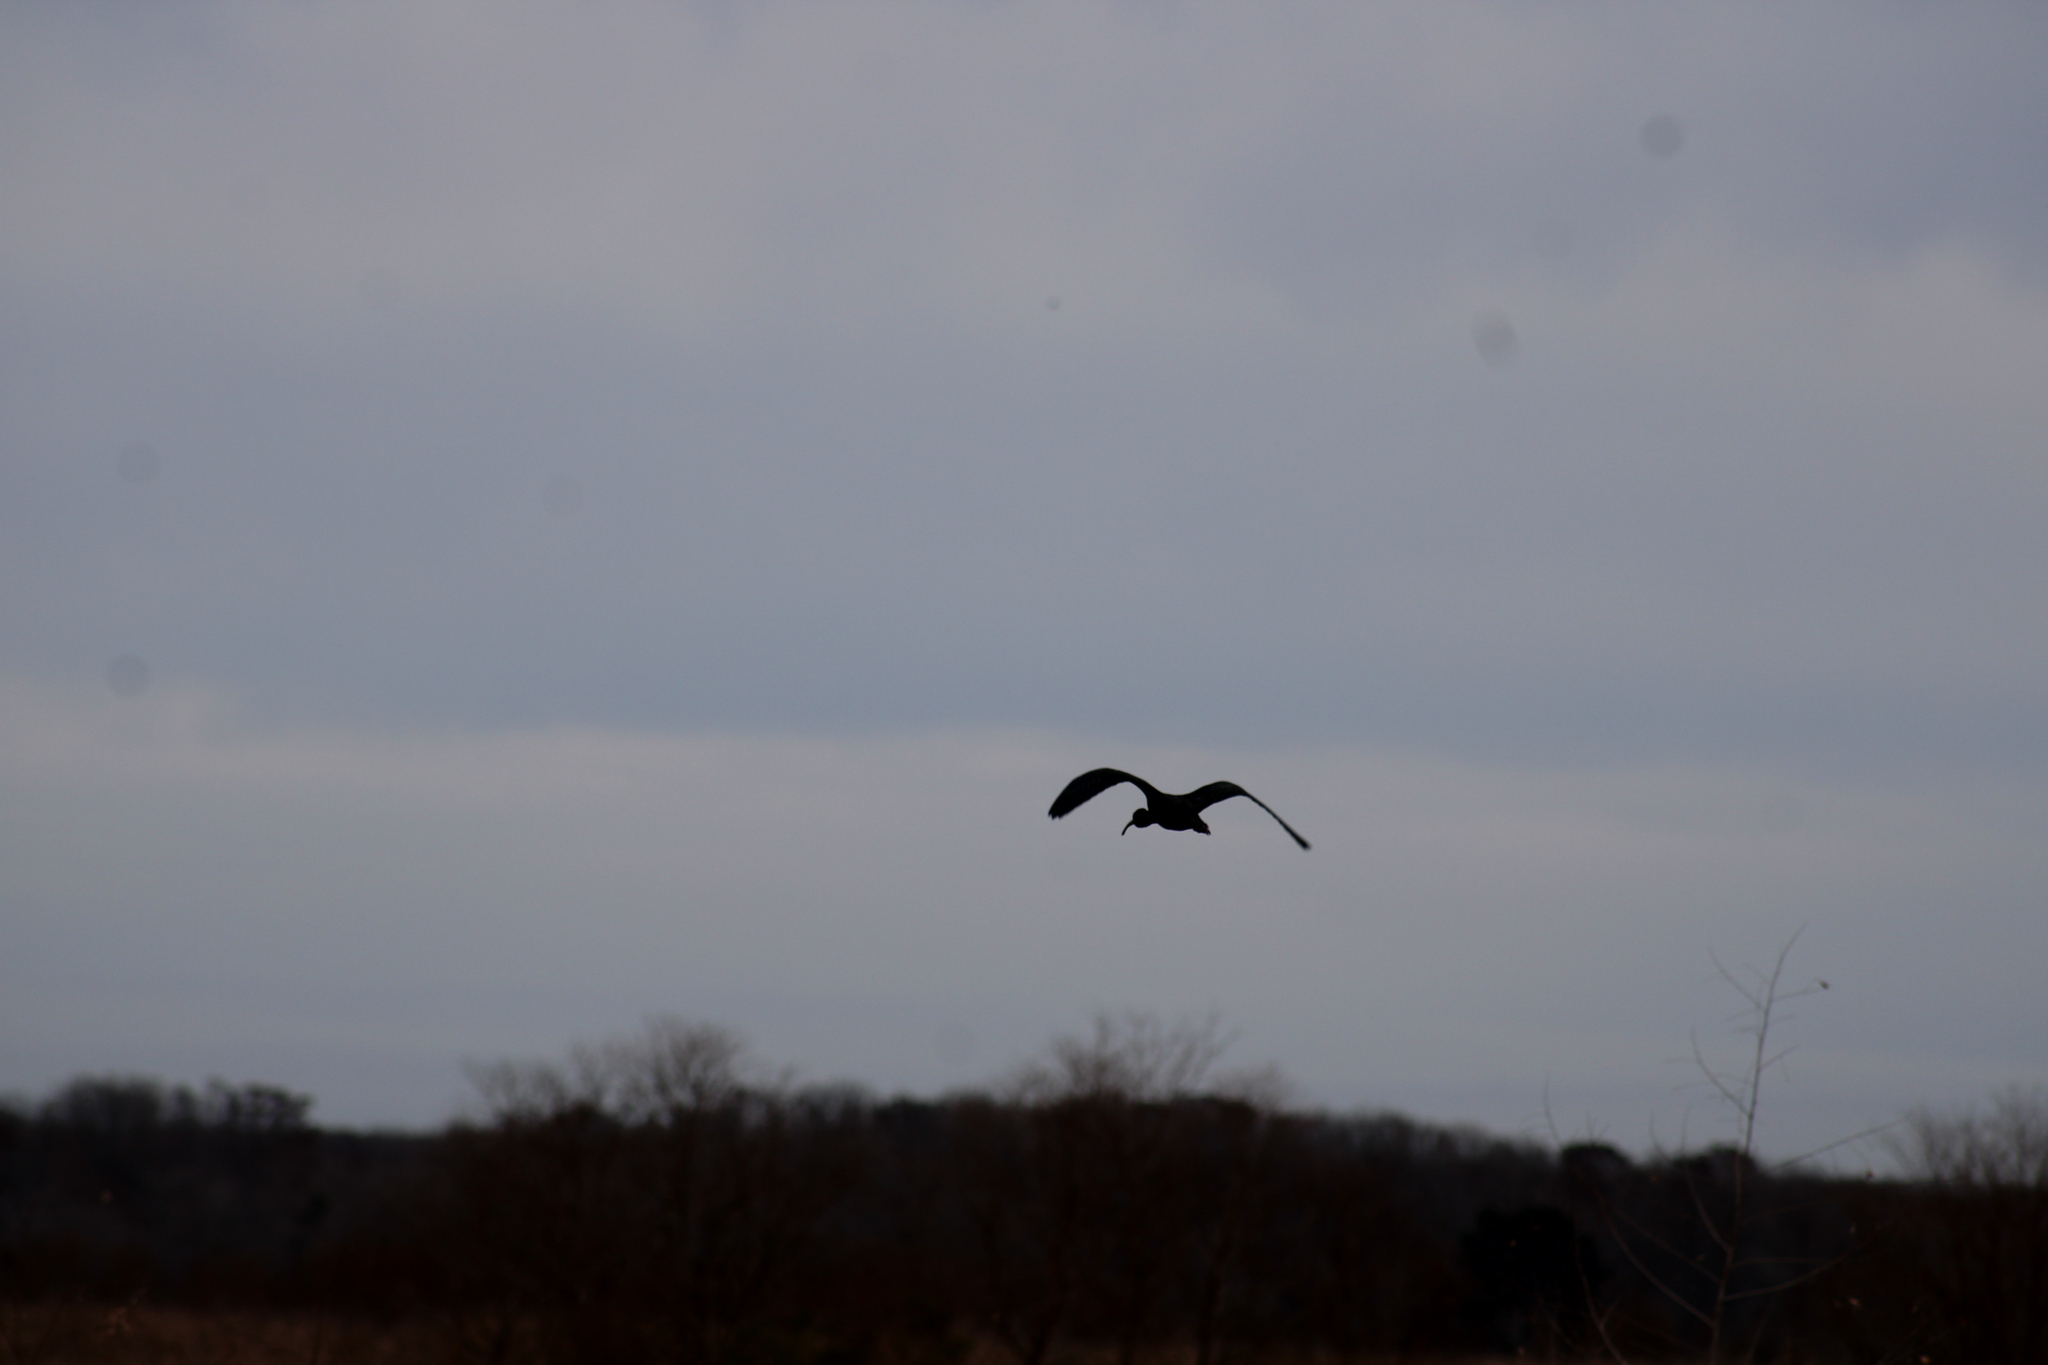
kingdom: Animalia
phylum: Chordata
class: Aves
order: Pelecaniformes
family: Threskiornithidae
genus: Plegadis
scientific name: Plegadis falcinellus
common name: Glossy ibis
